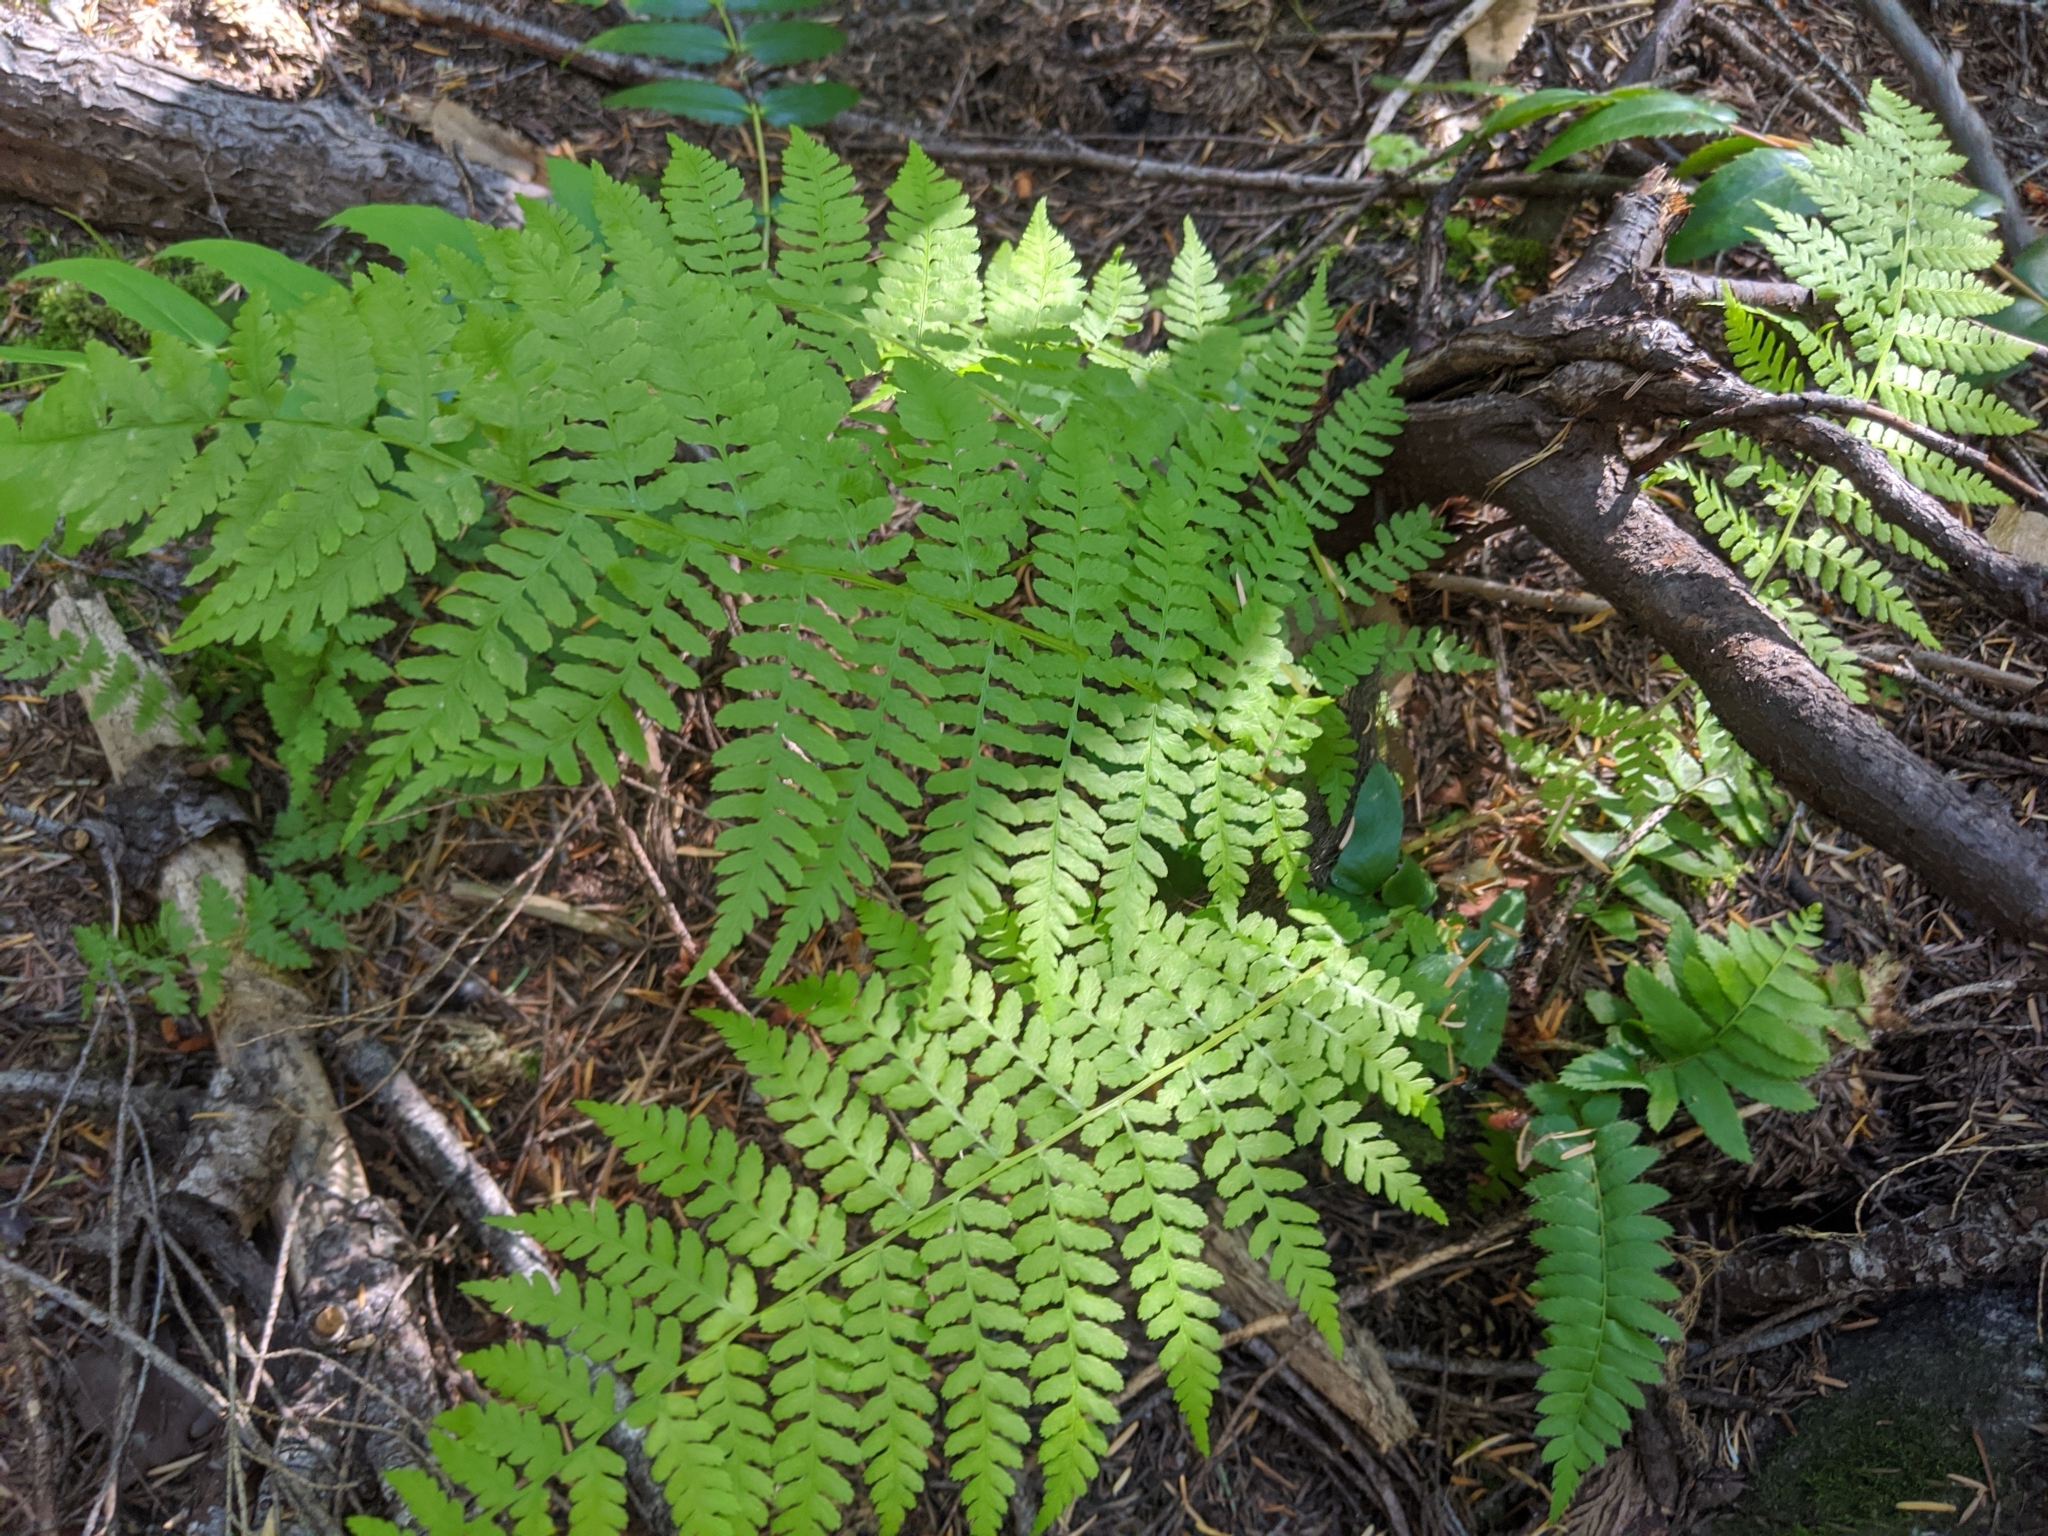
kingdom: Plantae
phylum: Tracheophyta
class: Polypodiopsida
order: Polypodiales
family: Athyriaceae
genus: Athyrium
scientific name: Athyrium filix-femina
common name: Lady fern
